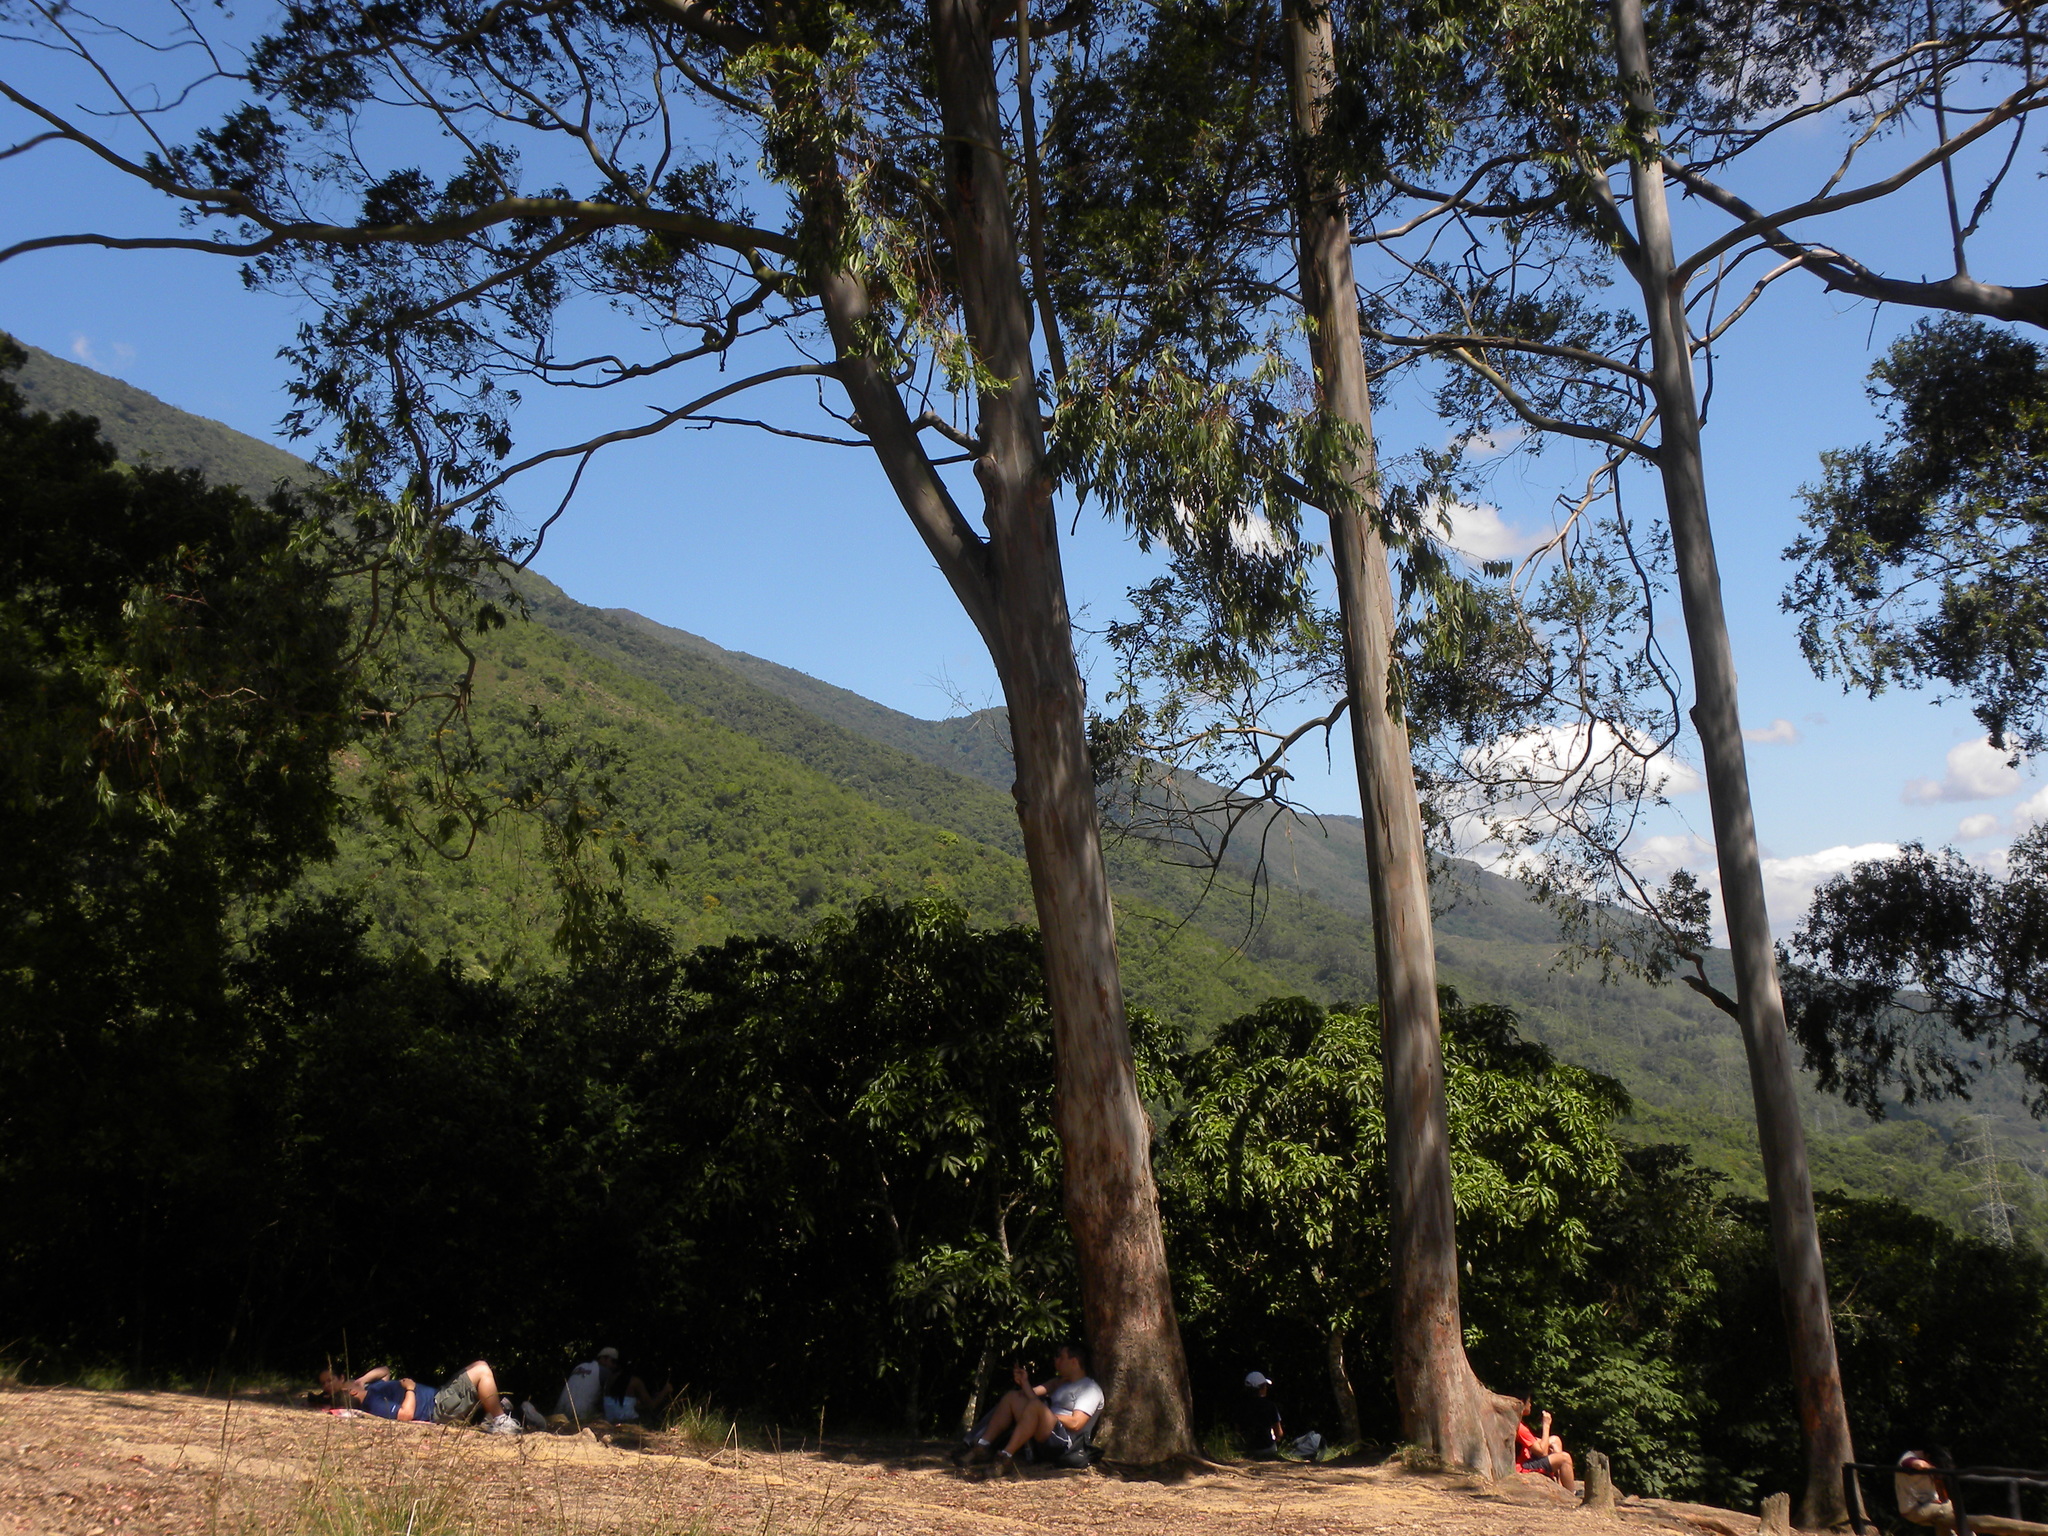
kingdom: Plantae
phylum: Tracheophyta
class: Magnoliopsida
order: Myrtales
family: Myrtaceae
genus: Eucalyptus
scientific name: Eucalyptus globulus
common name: Southern blue-gum
